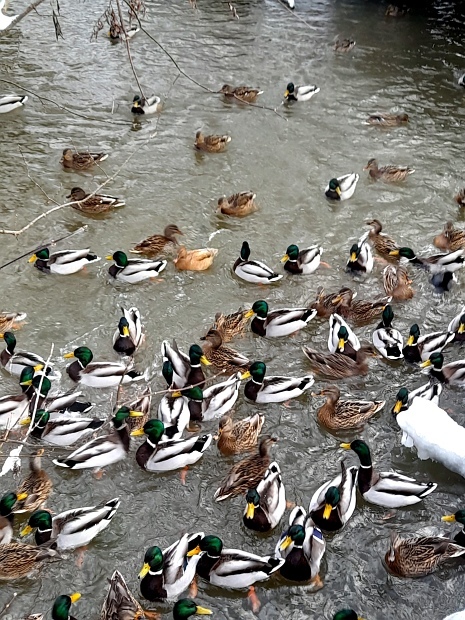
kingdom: Animalia
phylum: Chordata
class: Aves
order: Anseriformes
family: Anatidae
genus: Anas
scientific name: Anas platyrhynchos
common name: Mallard
